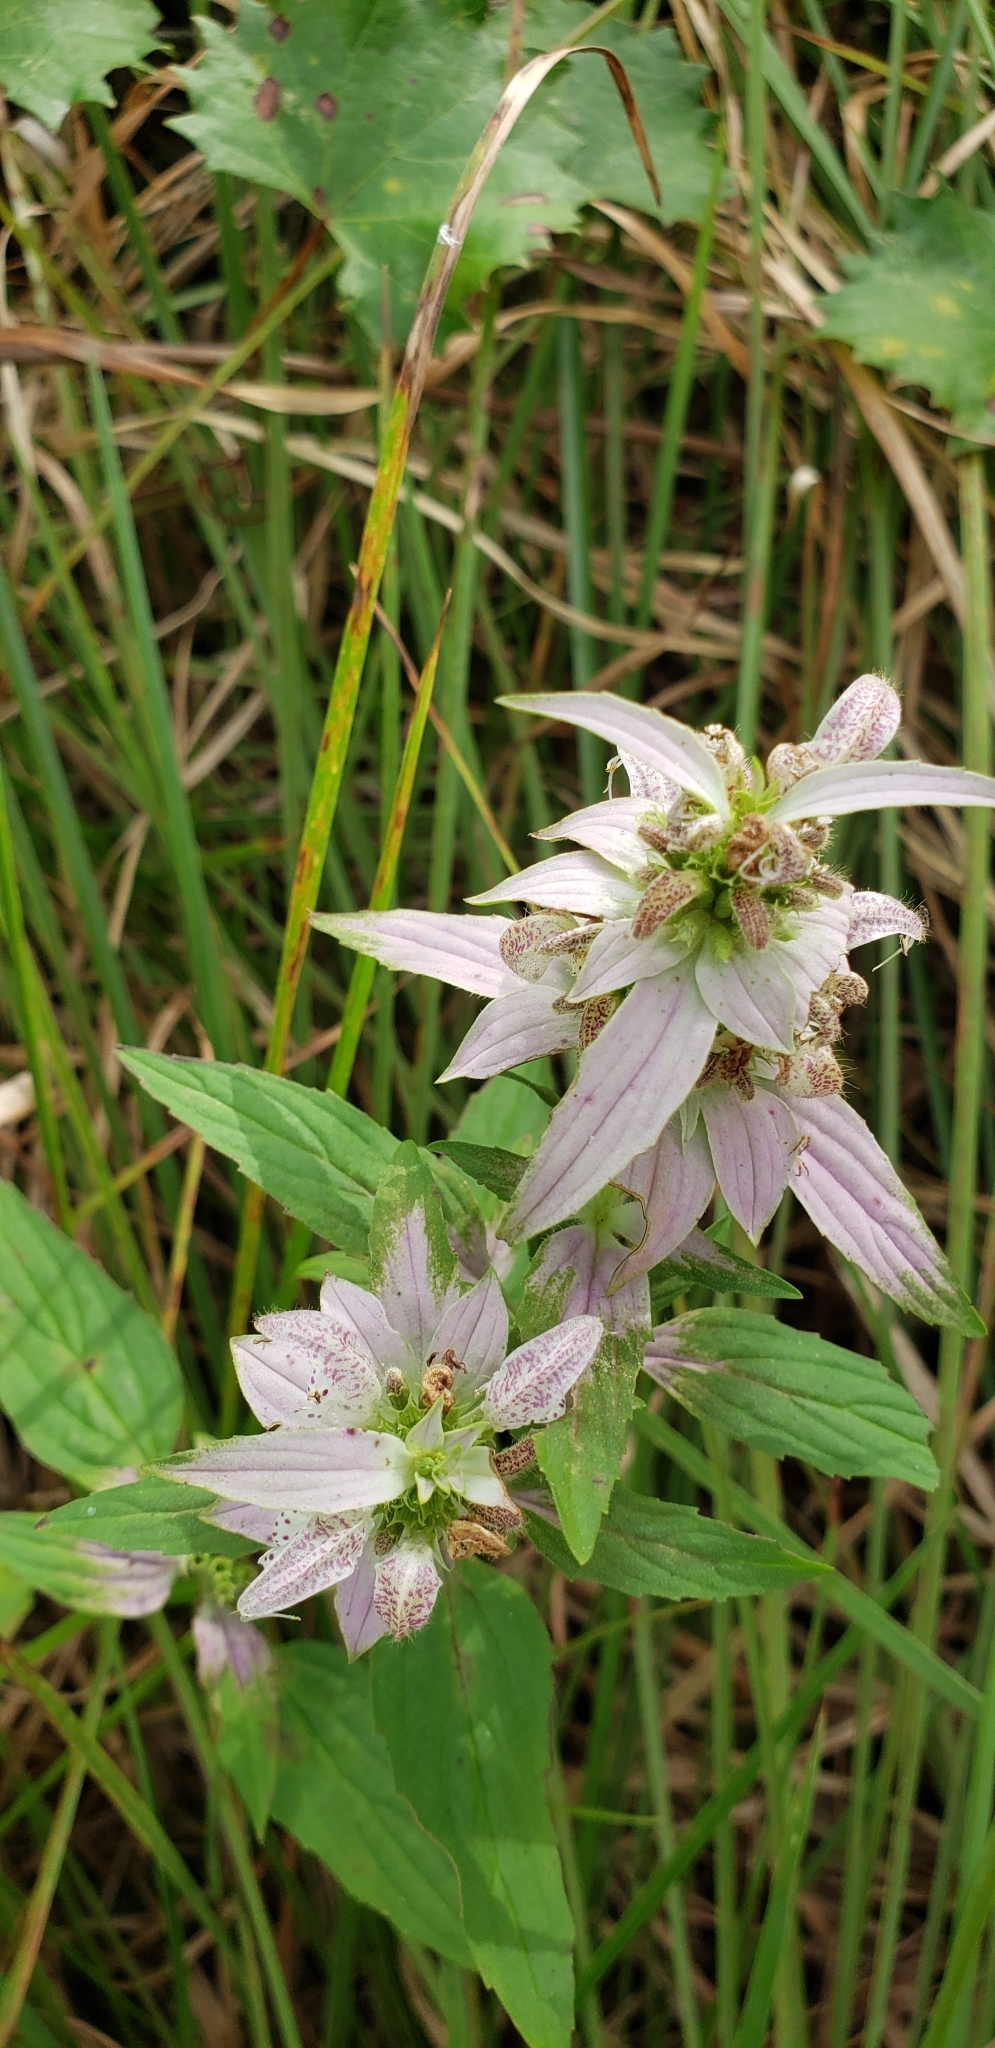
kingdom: Plantae
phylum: Tracheophyta
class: Magnoliopsida
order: Lamiales
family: Lamiaceae
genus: Monarda
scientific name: Monarda punctata
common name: Dotted monarda
